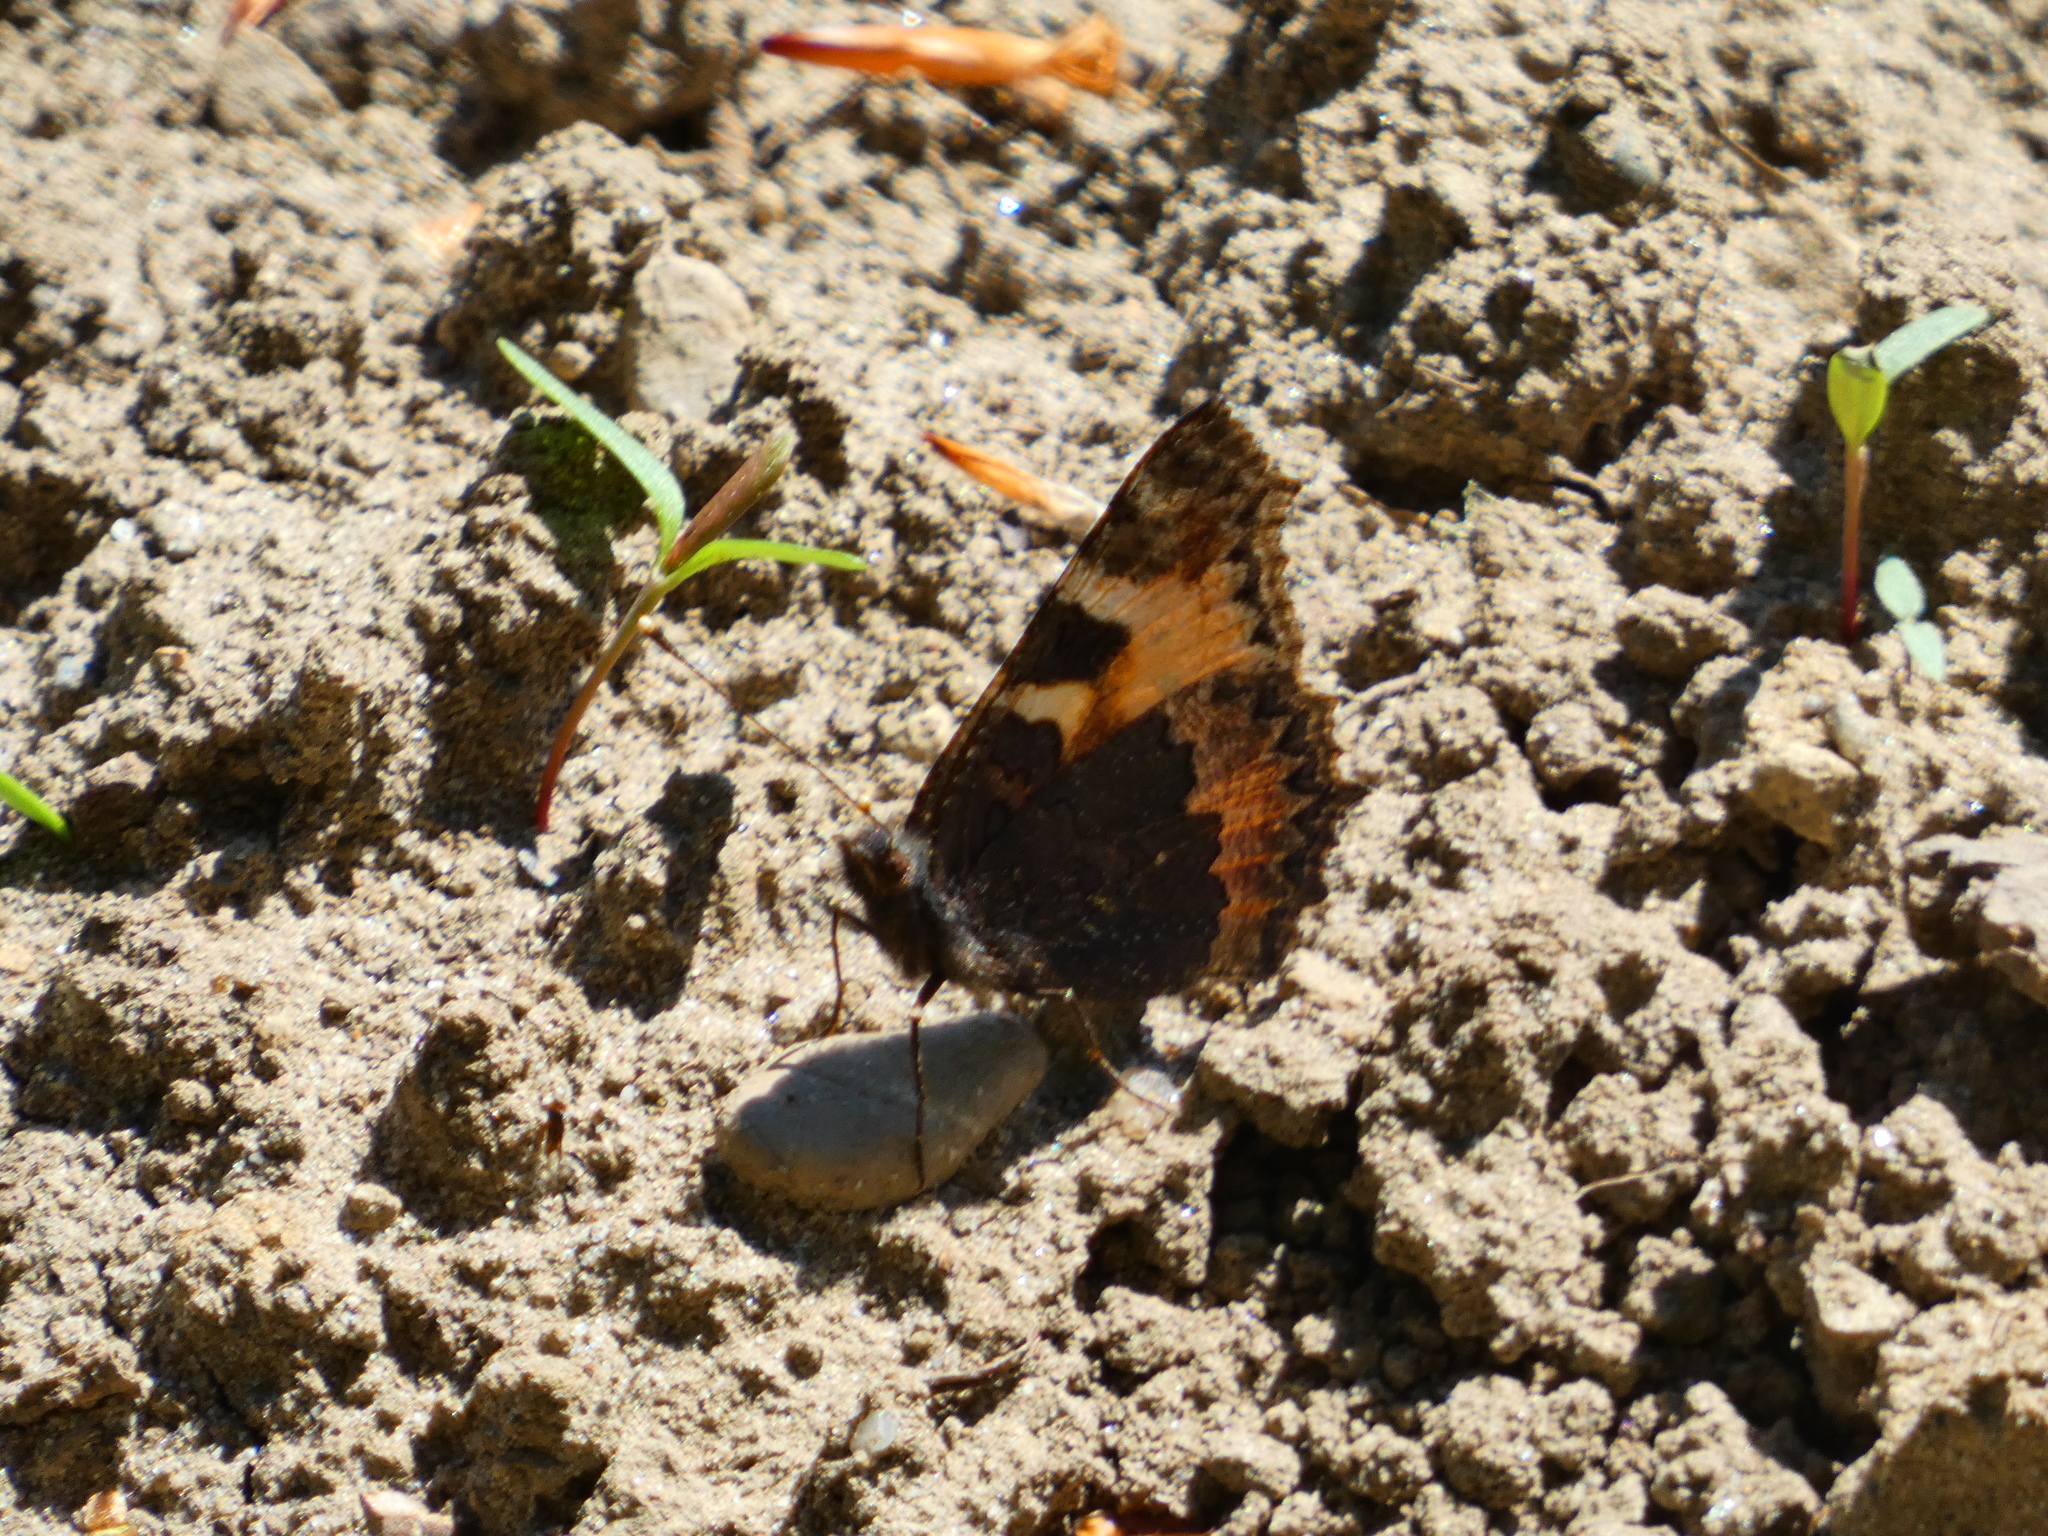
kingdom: Animalia
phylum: Arthropoda
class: Insecta
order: Lepidoptera
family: Nymphalidae
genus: Aglais
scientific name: Aglais urticae
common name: Small tortoiseshell
